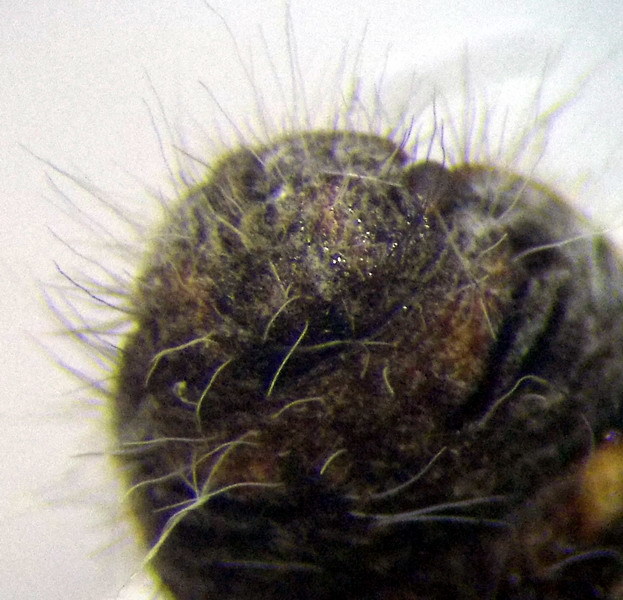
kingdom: Animalia
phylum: Arthropoda
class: Insecta
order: Hemiptera
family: Scutelleridae
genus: Irochrotus
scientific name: Irochrotus lanatus
